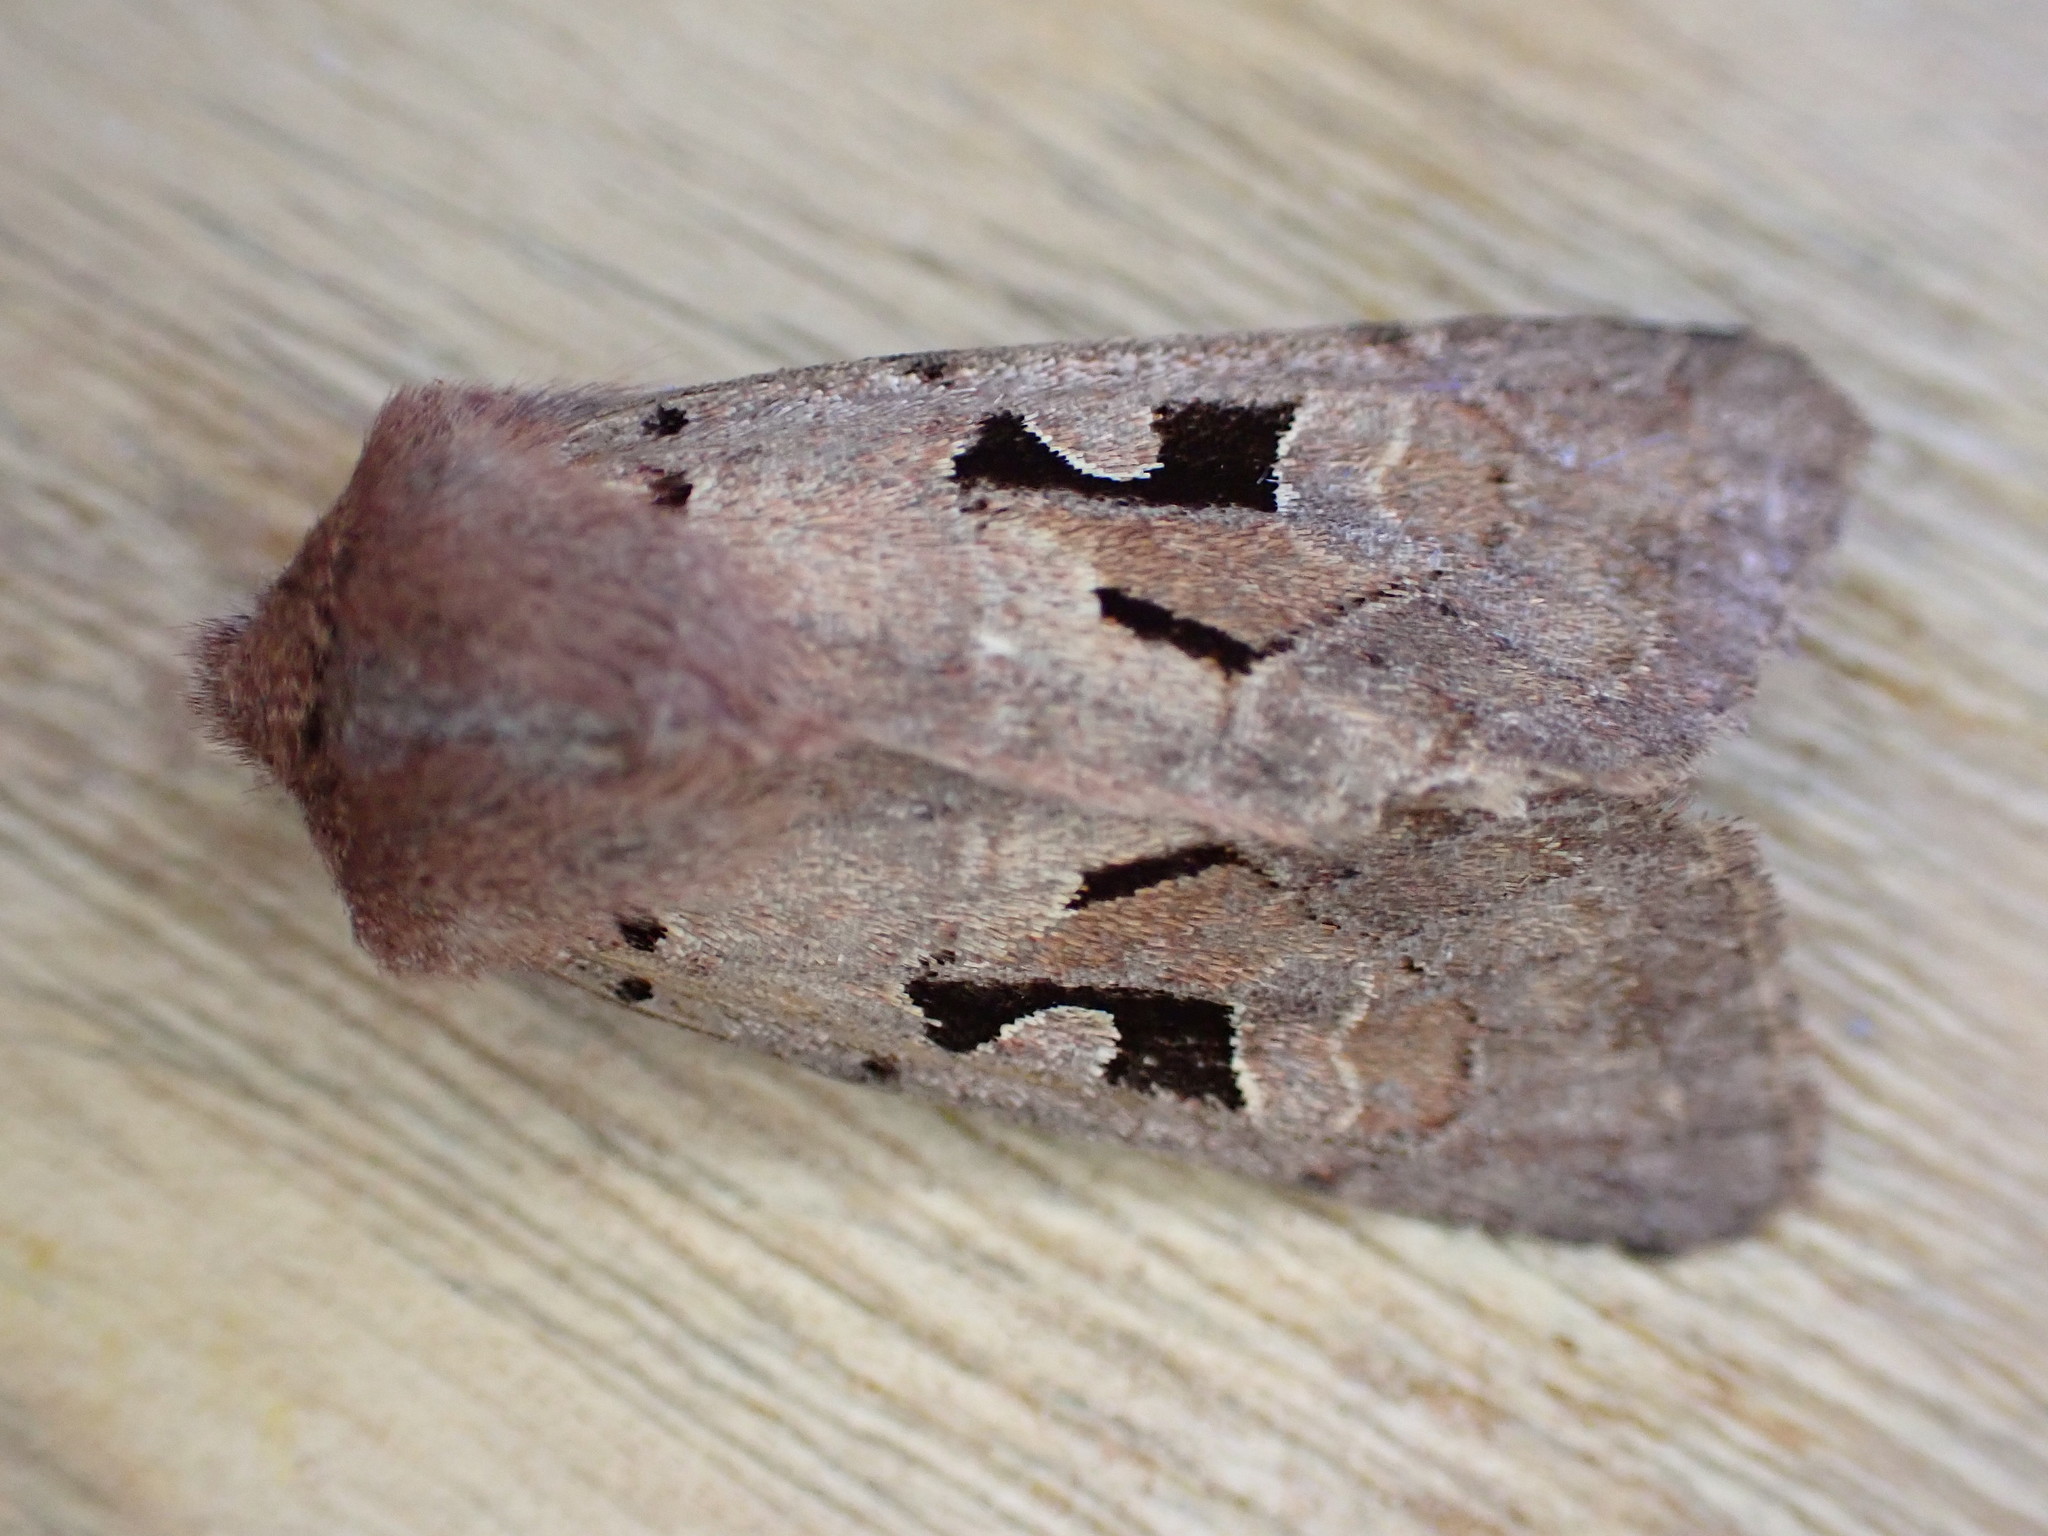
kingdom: Animalia
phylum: Arthropoda
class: Insecta
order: Lepidoptera
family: Noctuidae
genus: Orthosia
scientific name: Orthosia gothica
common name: Hebrew character
